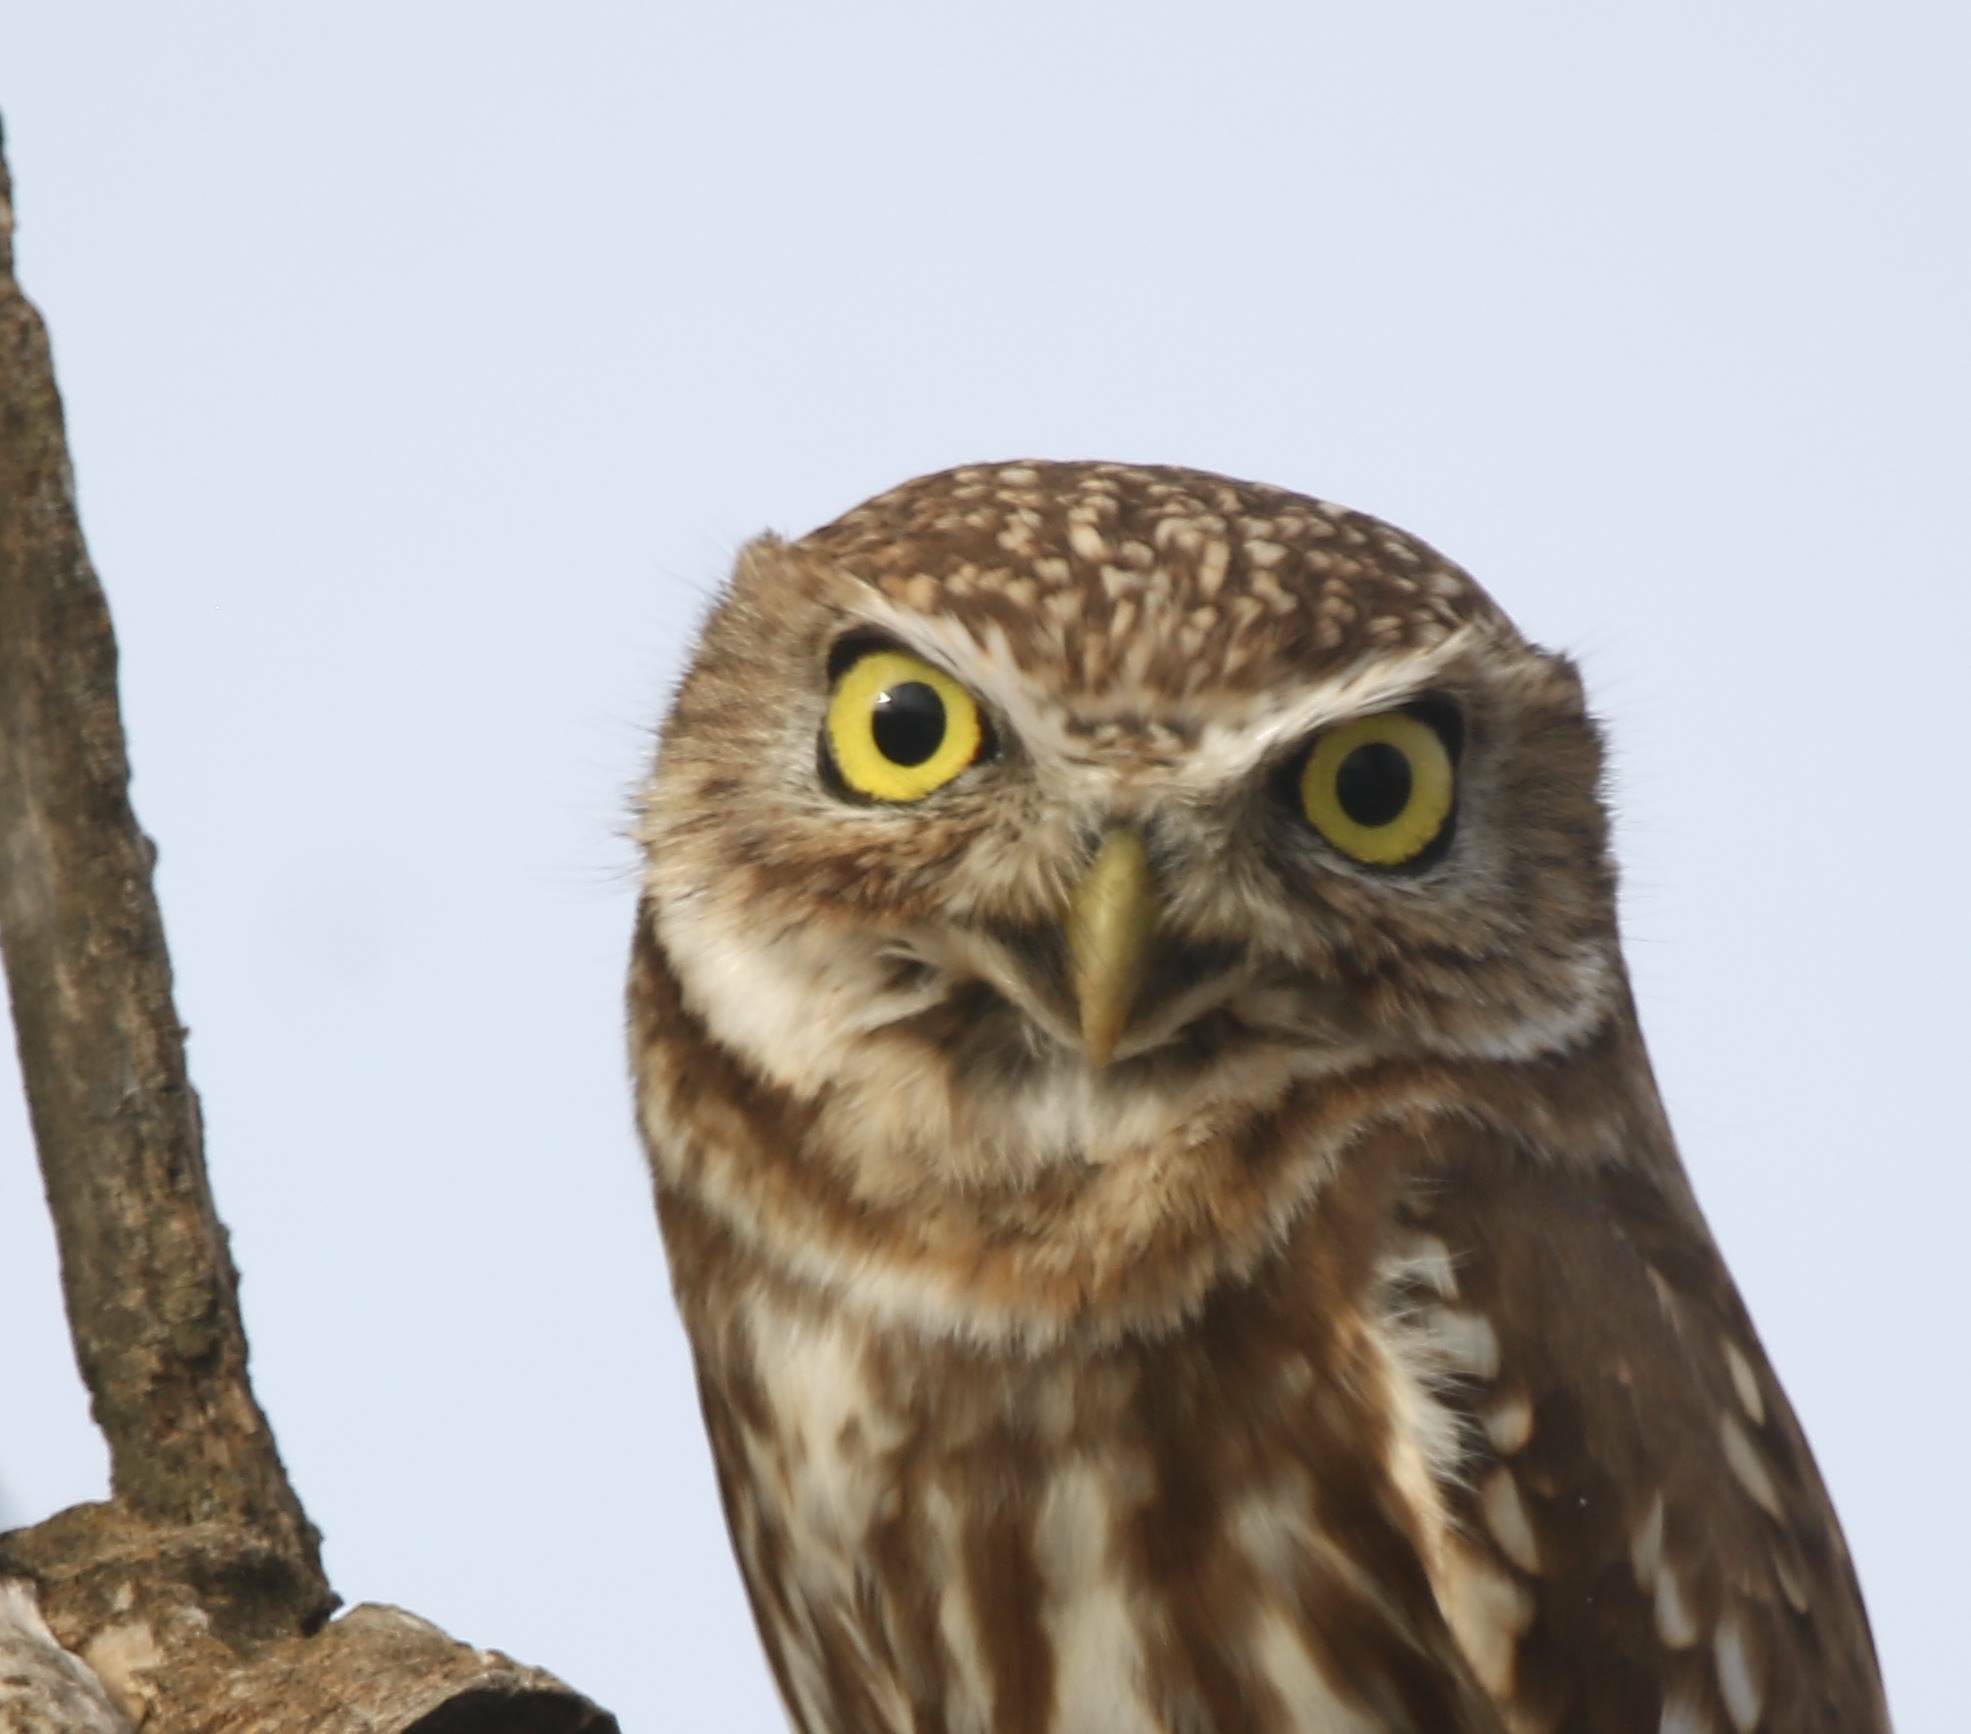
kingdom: Animalia
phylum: Chordata
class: Aves
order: Strigiformes
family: Strigidae
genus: Athene
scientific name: Athene noctua
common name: Little owl
